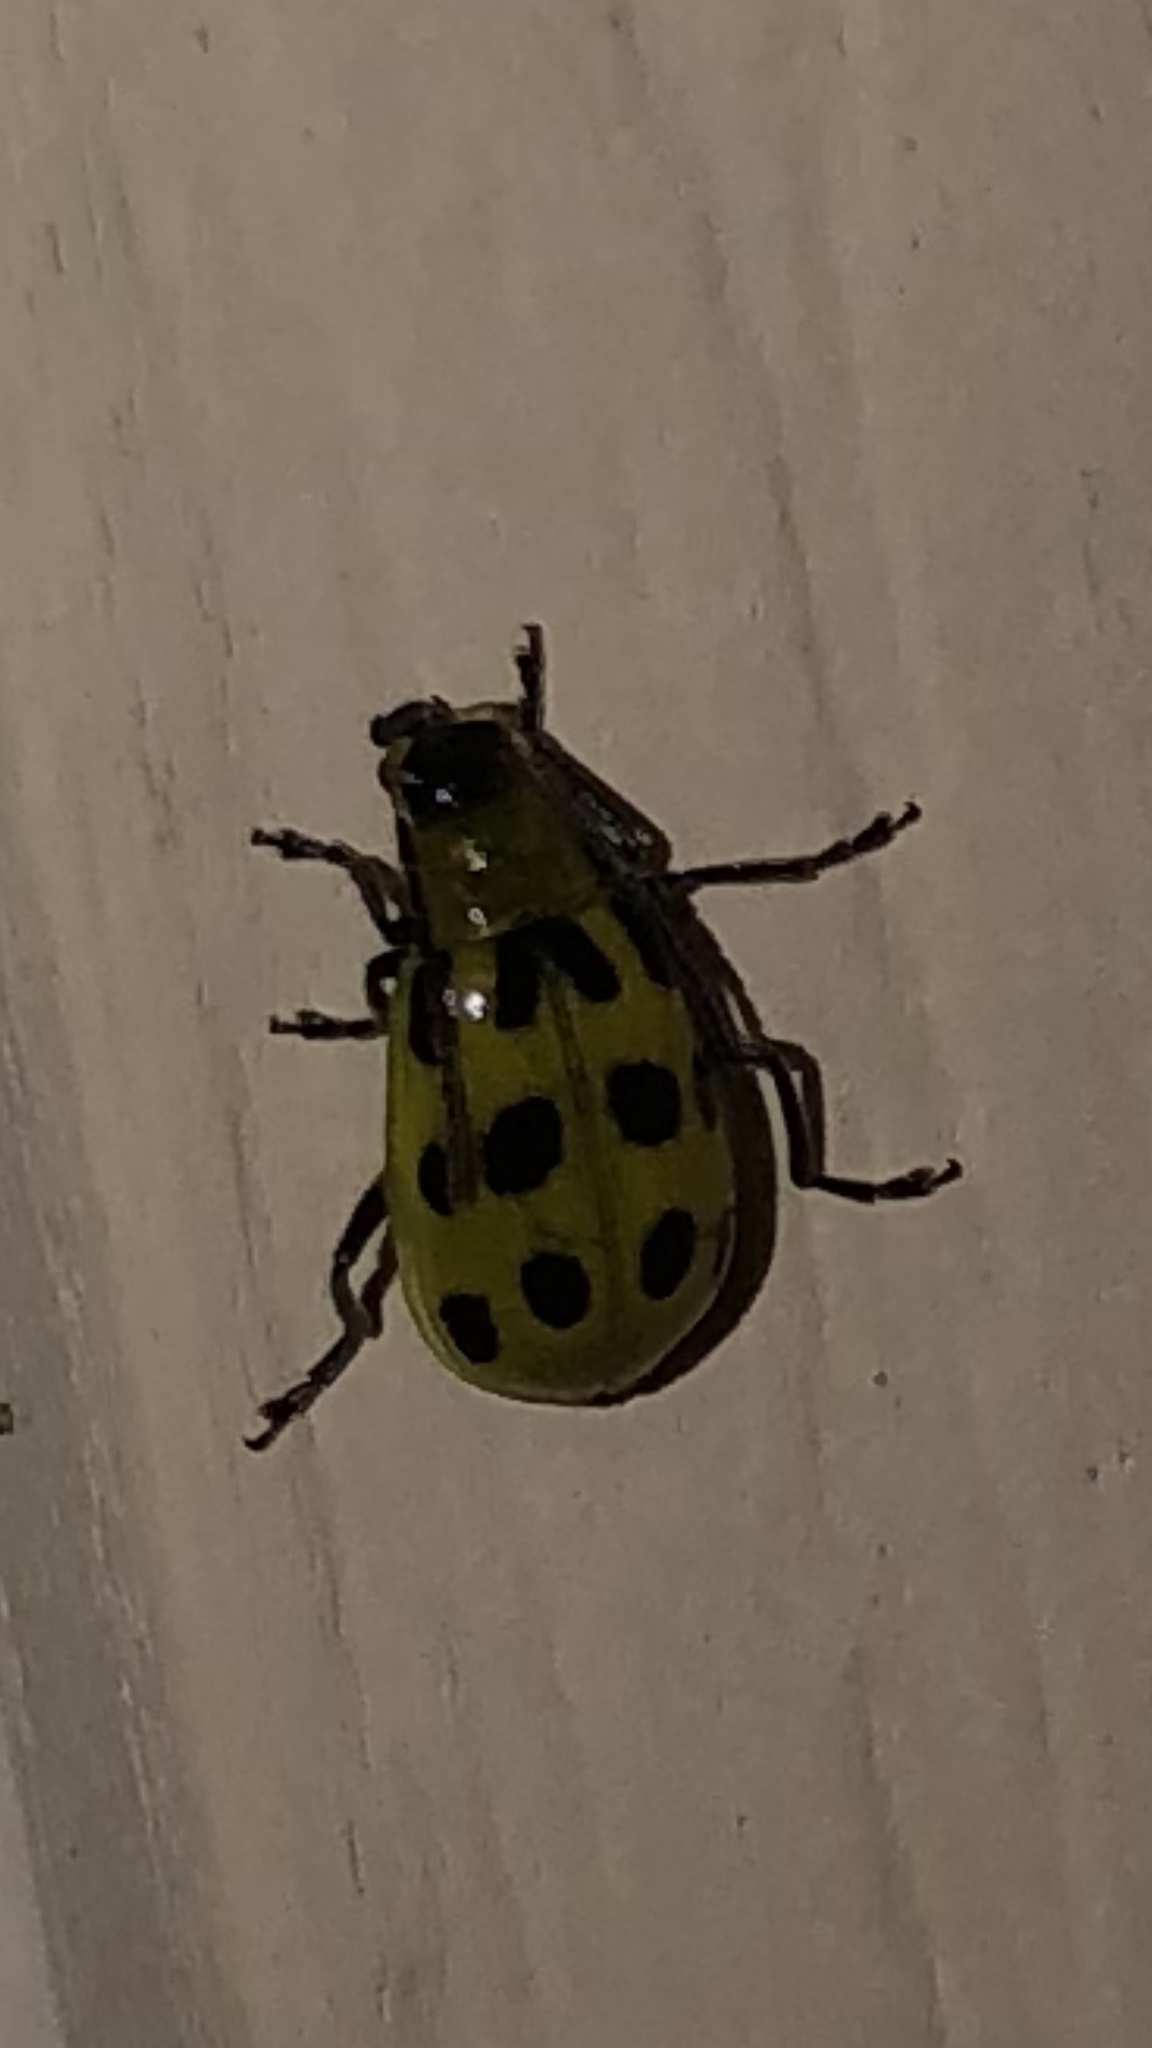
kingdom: Animalia
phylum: Arthropoda
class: Insecta
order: Coleoptera
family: Chrysomelidae
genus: Diabrotica
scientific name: Diabrotica undecimpunctata
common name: Spotted cucumber beetle
